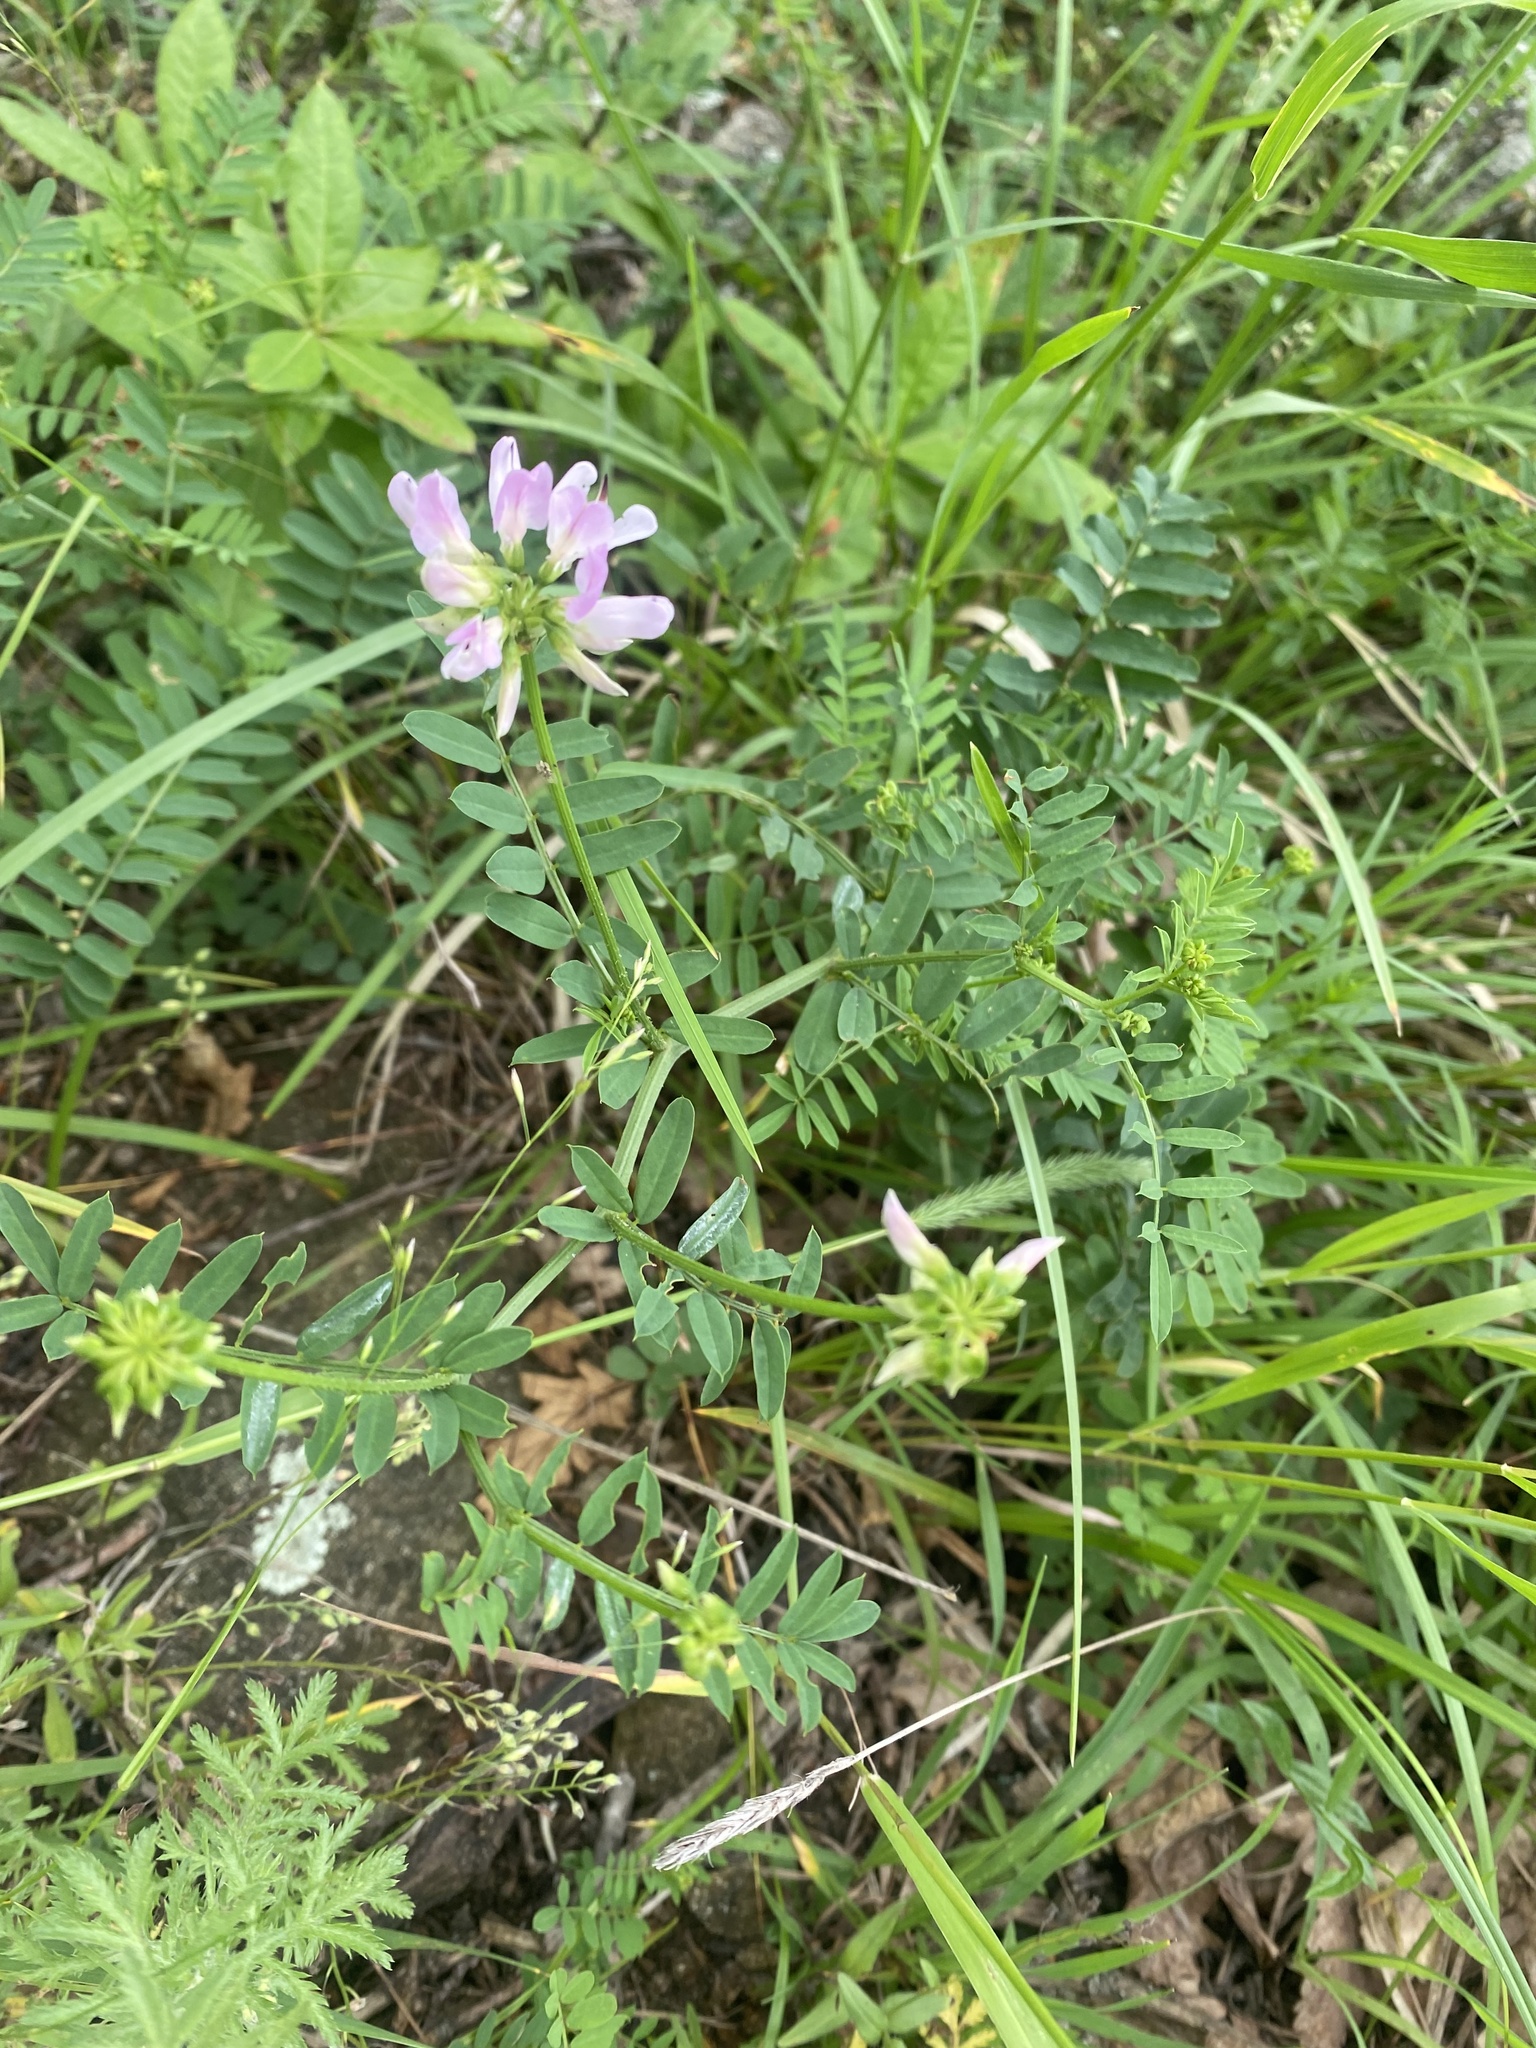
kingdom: Plantae
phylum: Tracheophyta
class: Magnoliopsida
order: Fabales
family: Fabaceae
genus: Coronilla
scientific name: Coronilla varia
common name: Crownvetch
